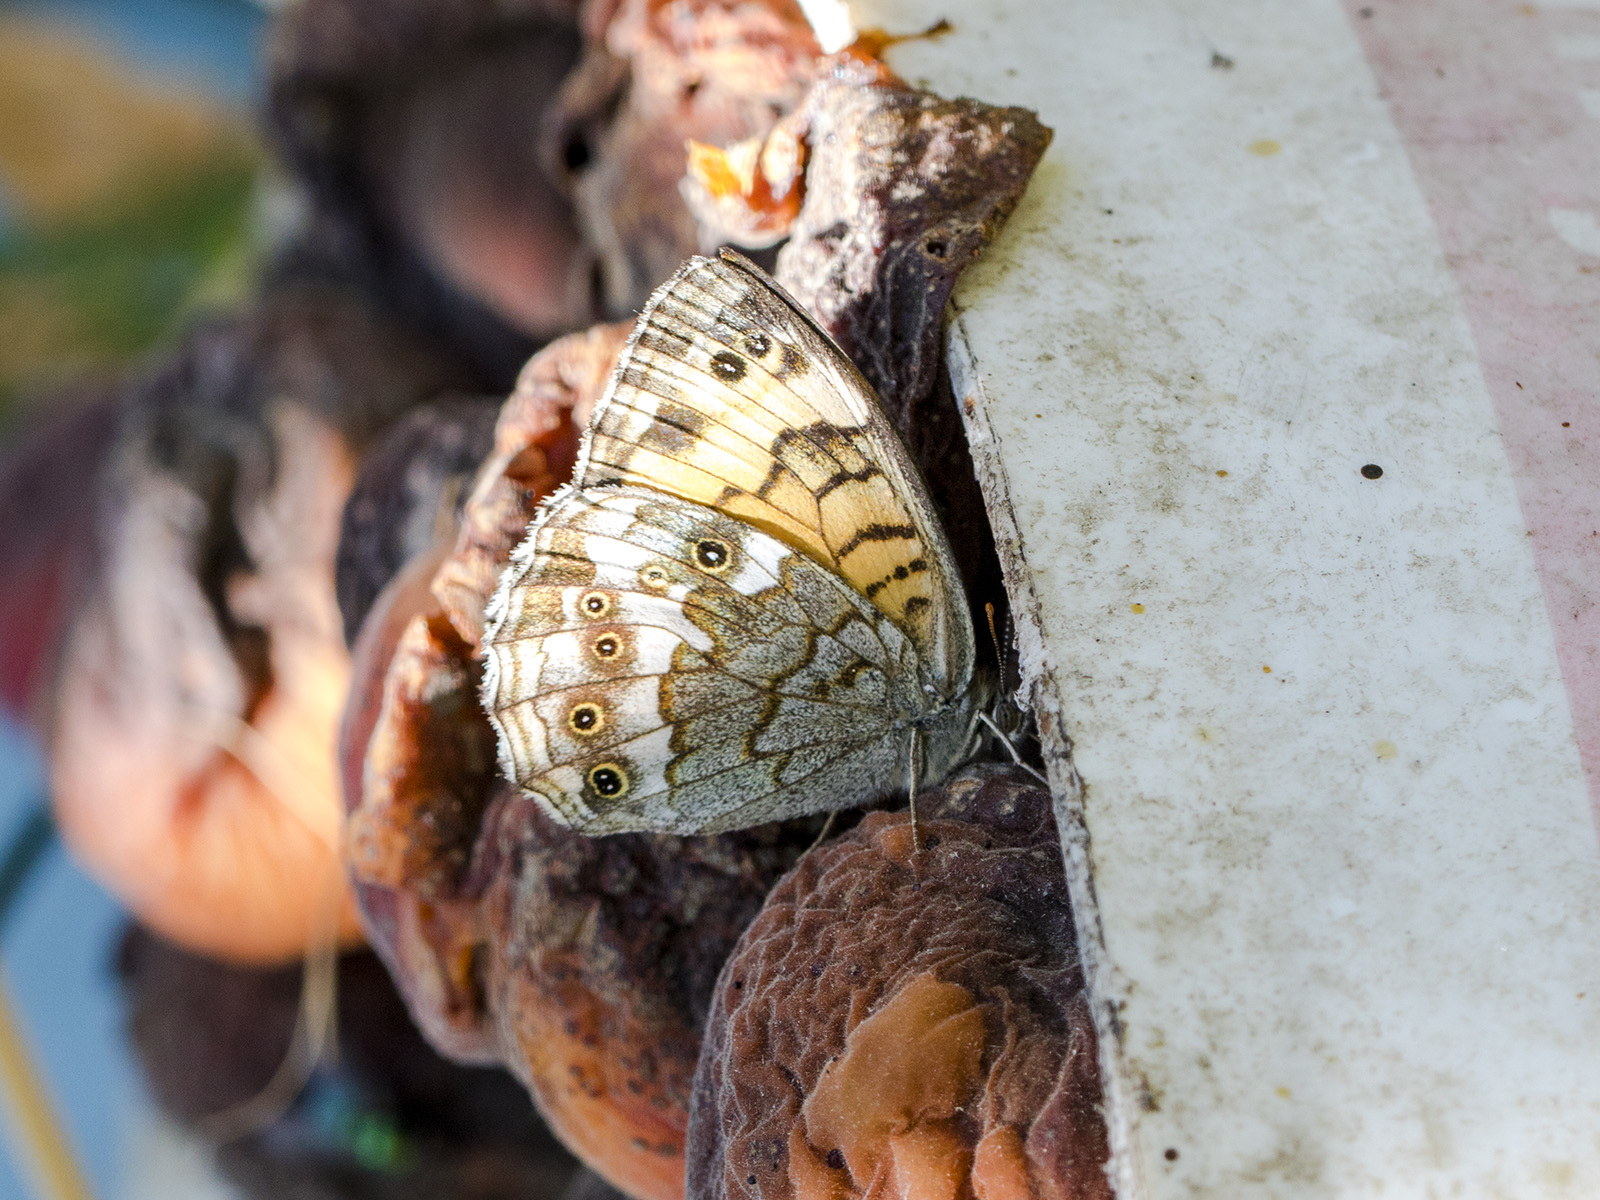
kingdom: Animalia
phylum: Arthropoda
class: Insecta
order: Lepidoptera
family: Nymphalidae
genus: Kirinia
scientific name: Kirinia eversmanni
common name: Yellow wall butterfly
